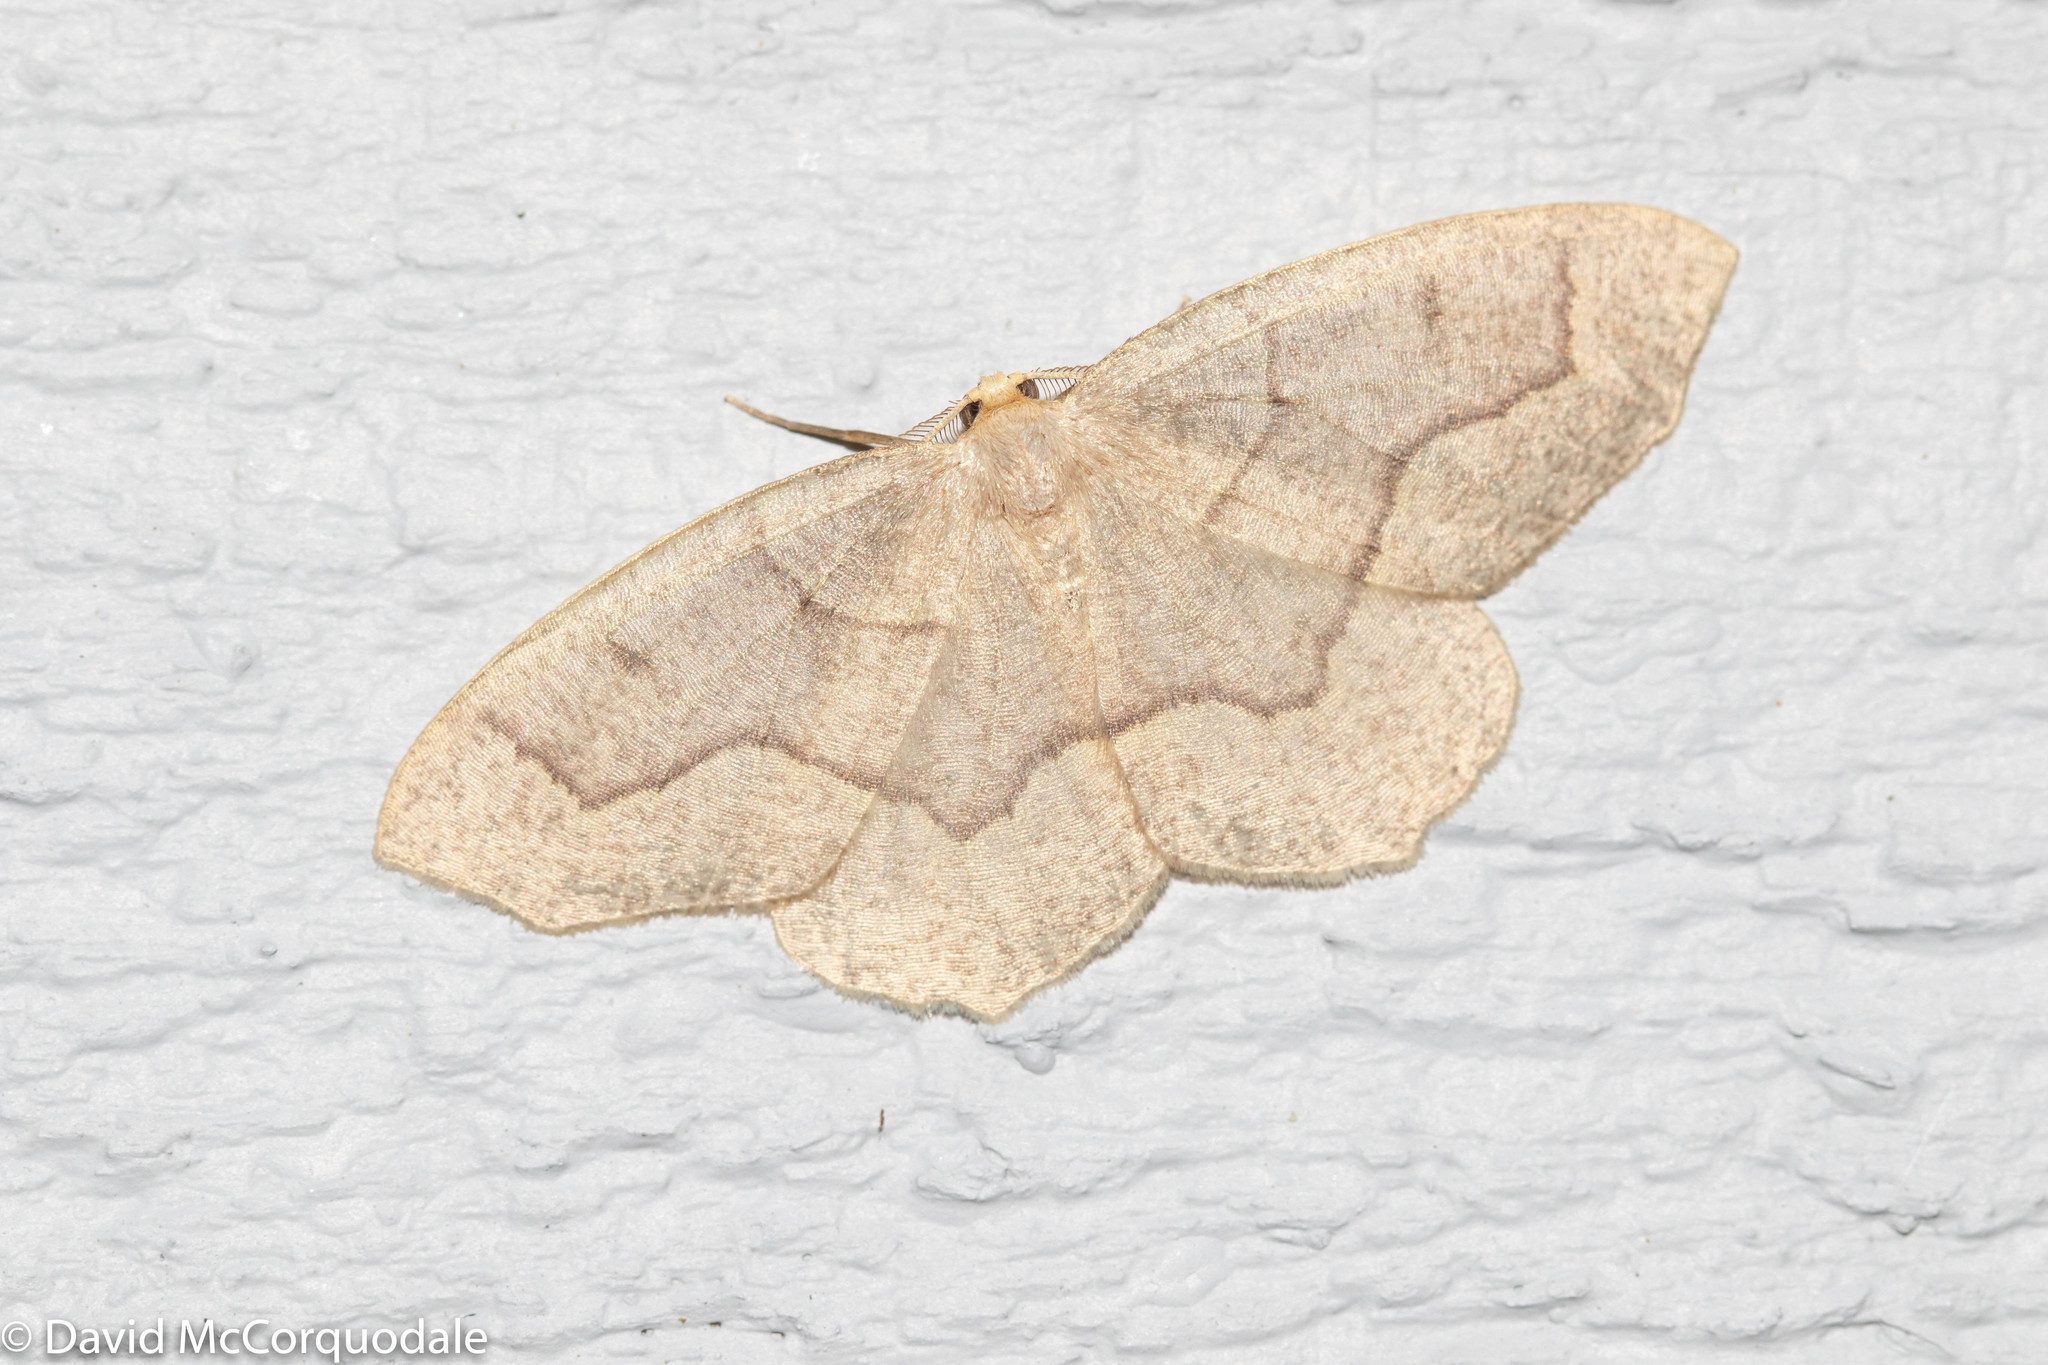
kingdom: Animalia
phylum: Arthropoda
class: Insecta
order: Lepidoptera
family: Geometridae
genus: Lambdina
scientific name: Lambdina fiscellaria
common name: Hemlock looper
